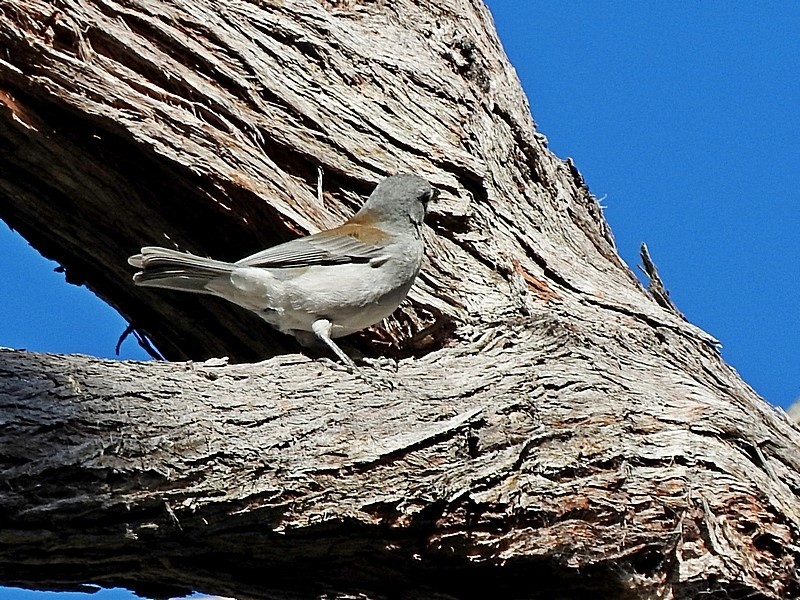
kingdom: Animalia
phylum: Chordata
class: Aves
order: Passeriformes
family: Pachycephalidae
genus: Colluricincla
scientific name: Colluricincla harmonica
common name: Grey shrikethrush
